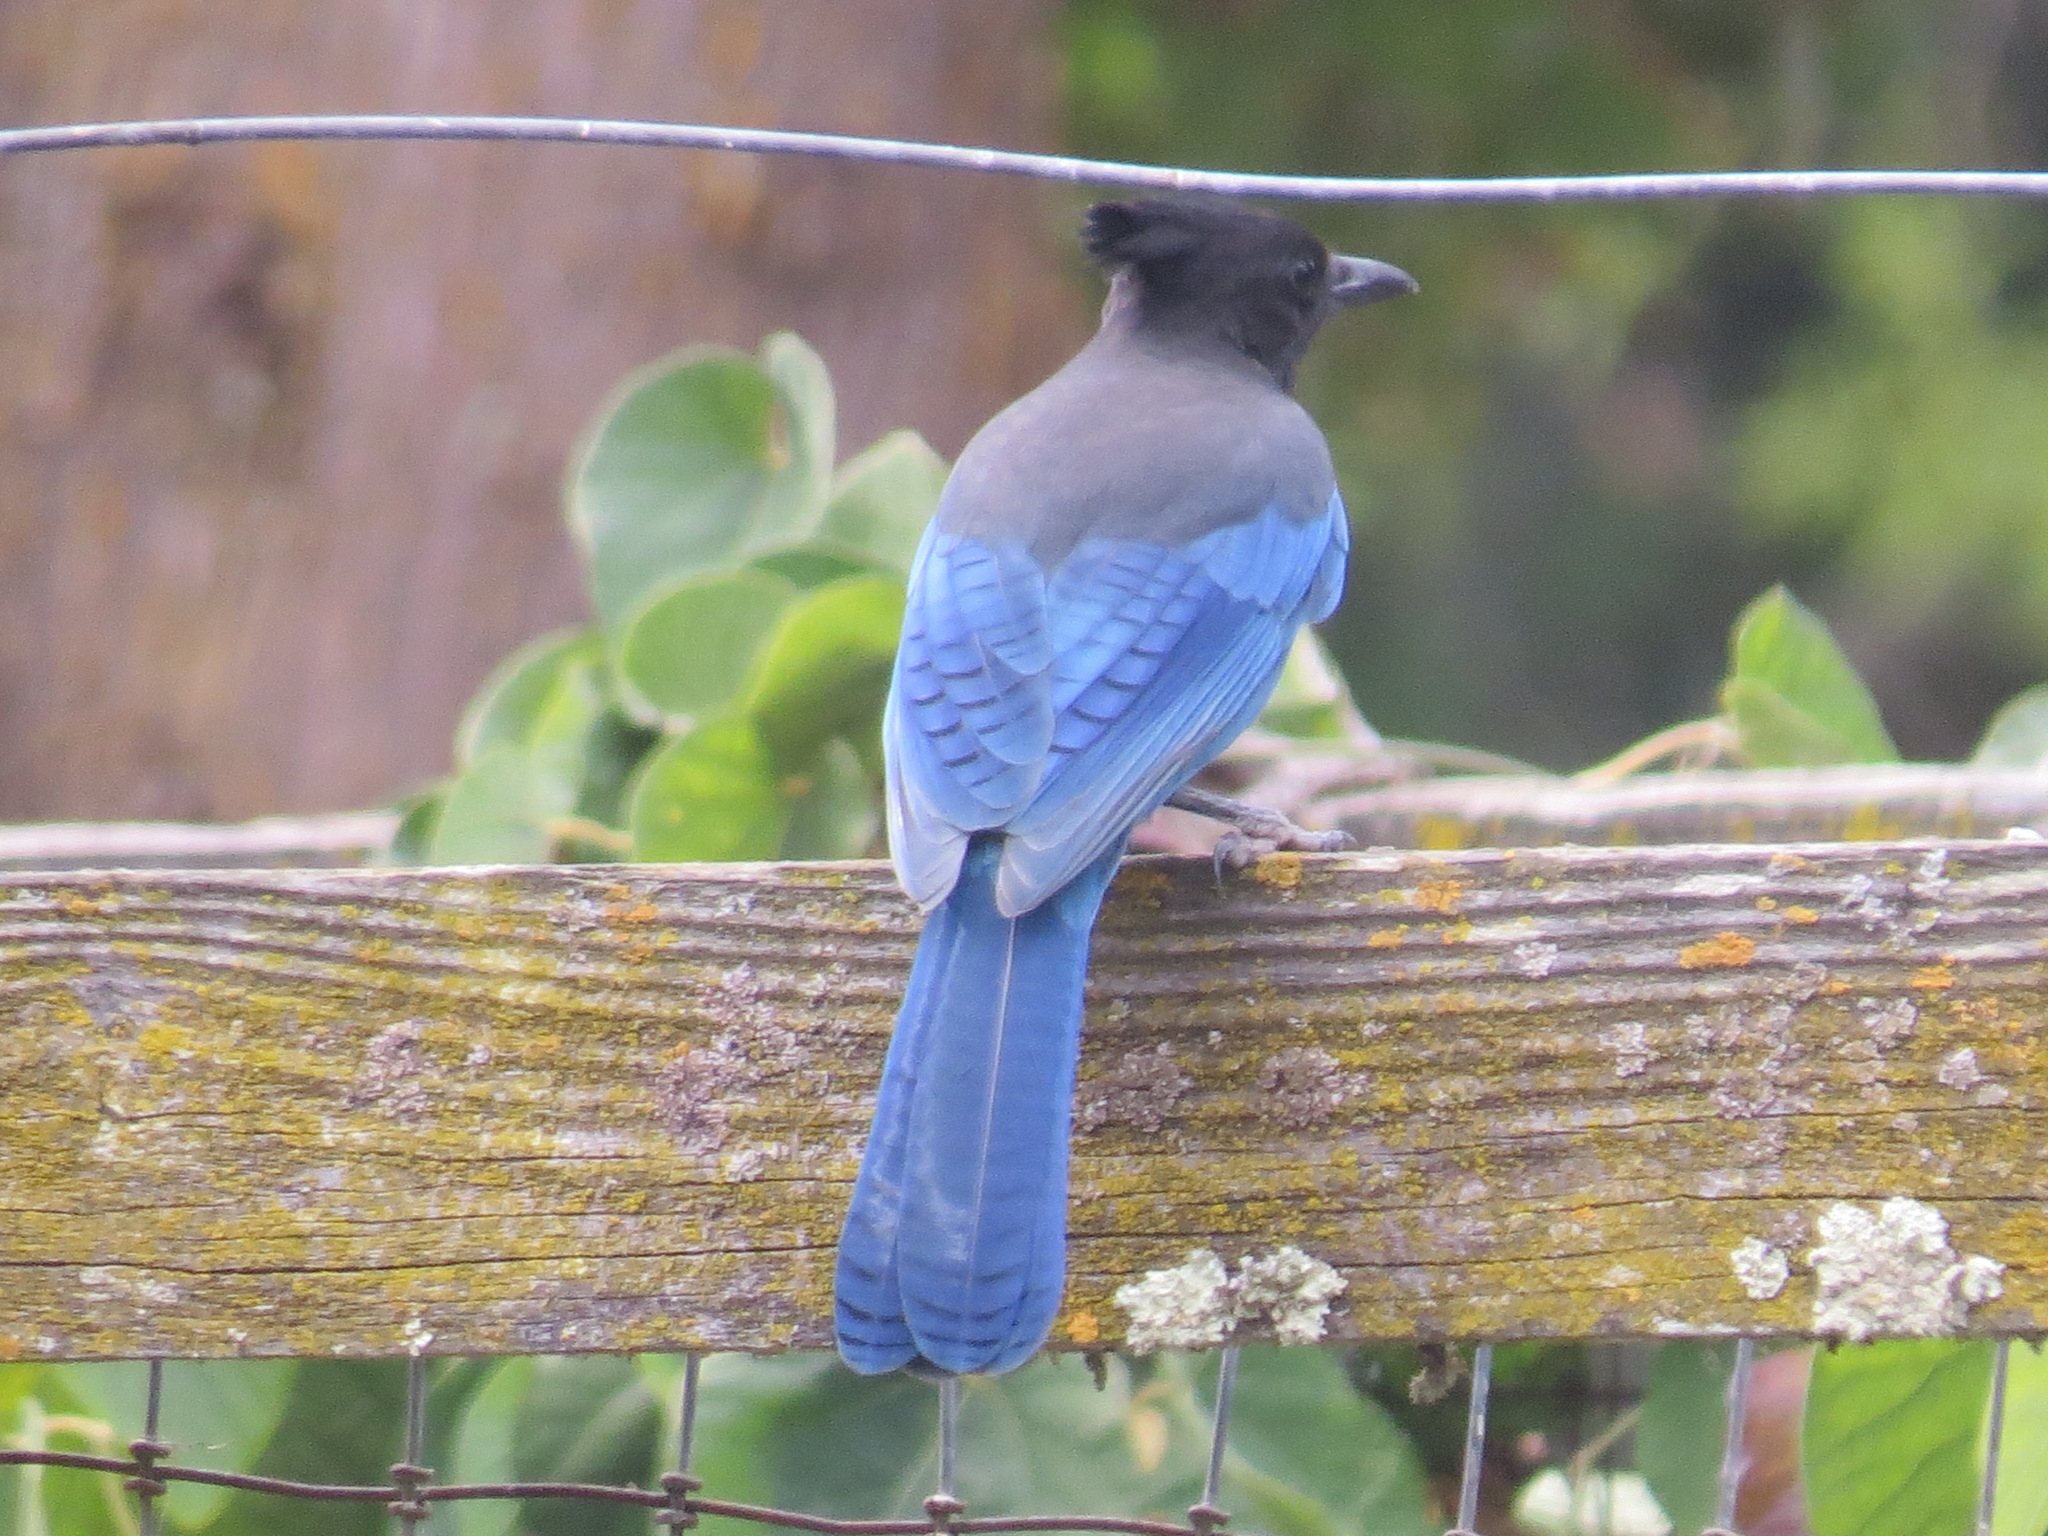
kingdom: Animalia
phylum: Chordata
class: Aves
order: Passeriformes
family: Corvidae
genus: Cyanocitta
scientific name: Cyanocitta stelleri
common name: Steller's jay
